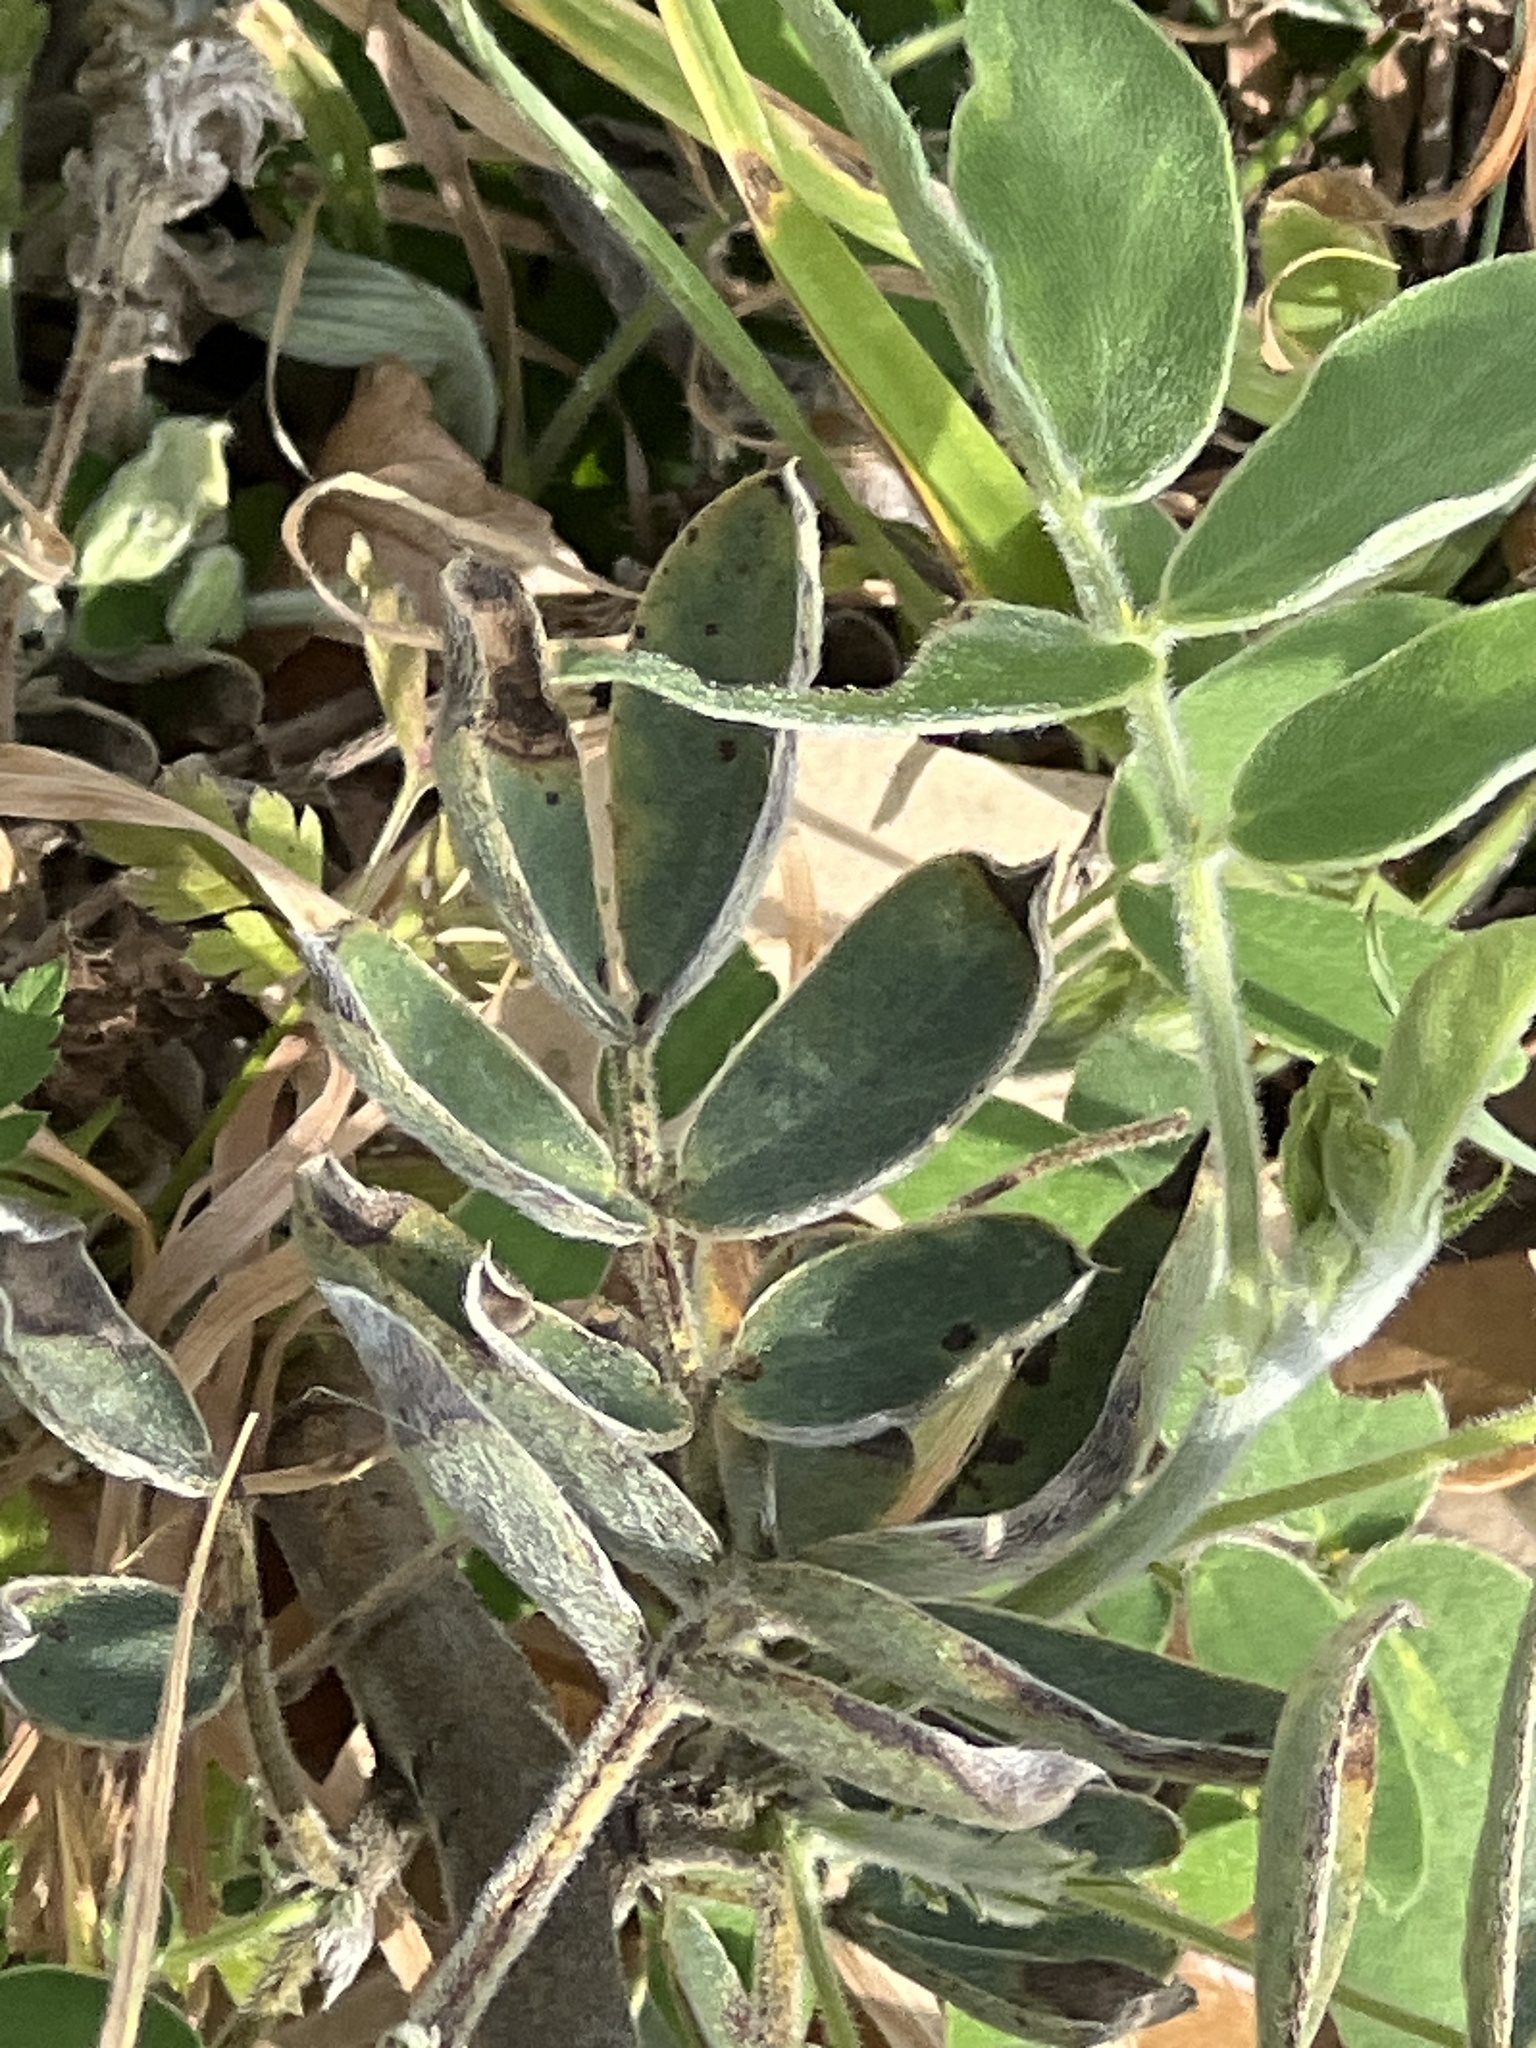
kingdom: Plantae
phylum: Tracheophyta
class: Magnoliopsida
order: Fabales
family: Fabaceae
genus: Senna
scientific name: Senna lindheimeriana
